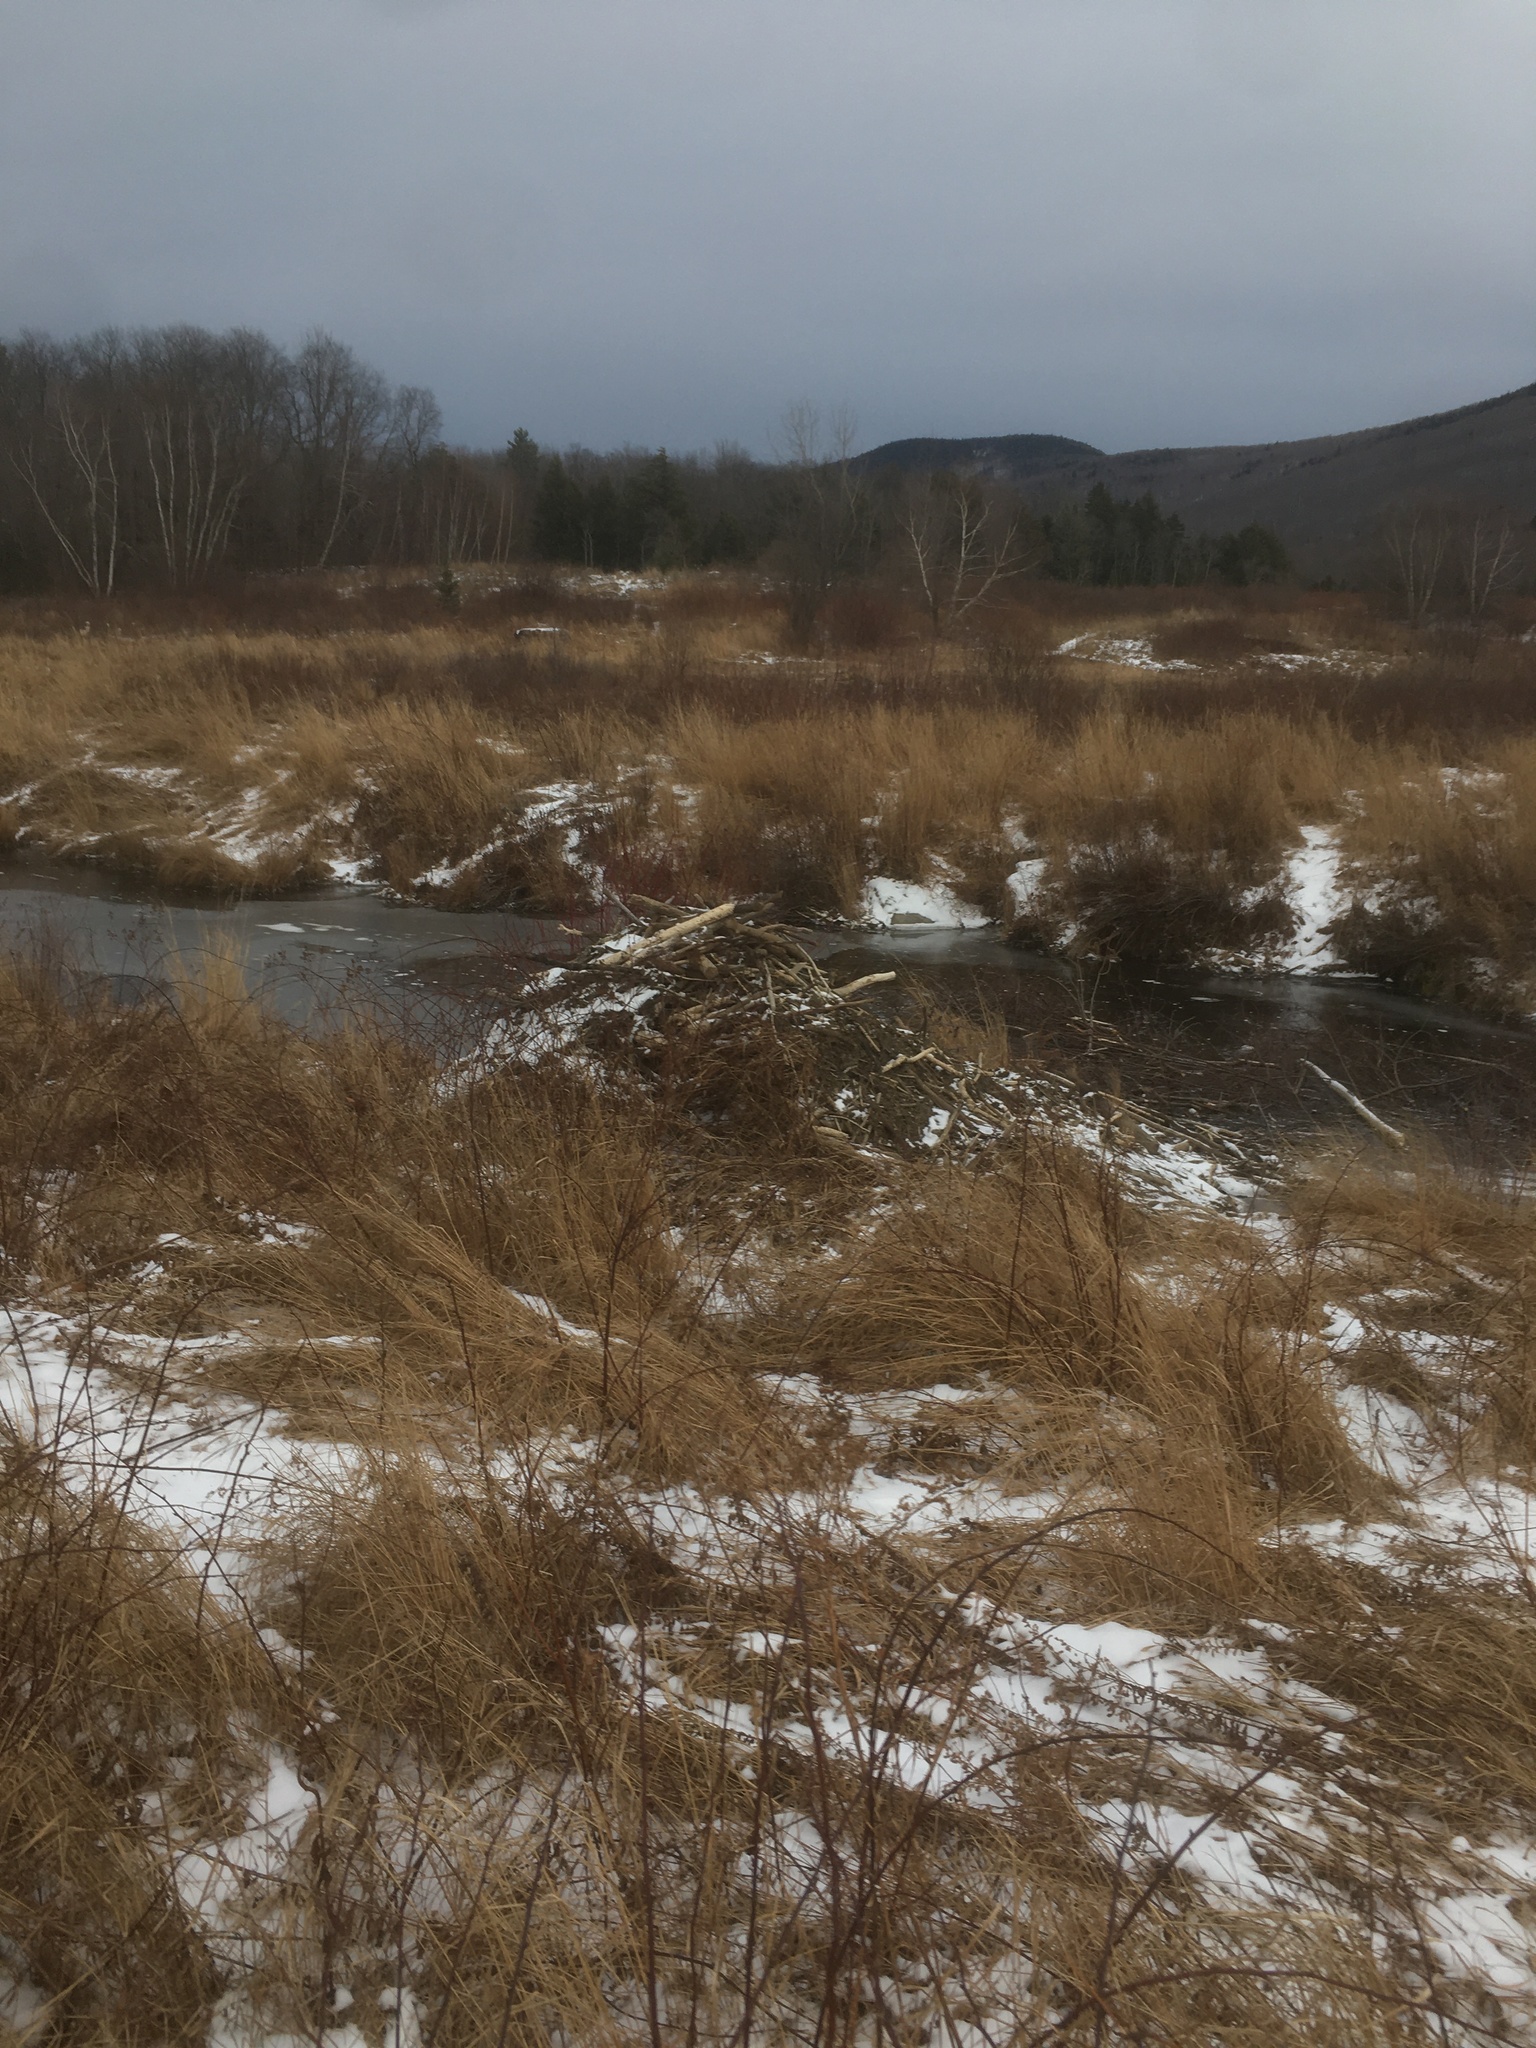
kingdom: Animalia
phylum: Chordata
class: Mammalia
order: Rodentia
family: Castoridae
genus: Castor
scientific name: Castor canadensis
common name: American beaver
